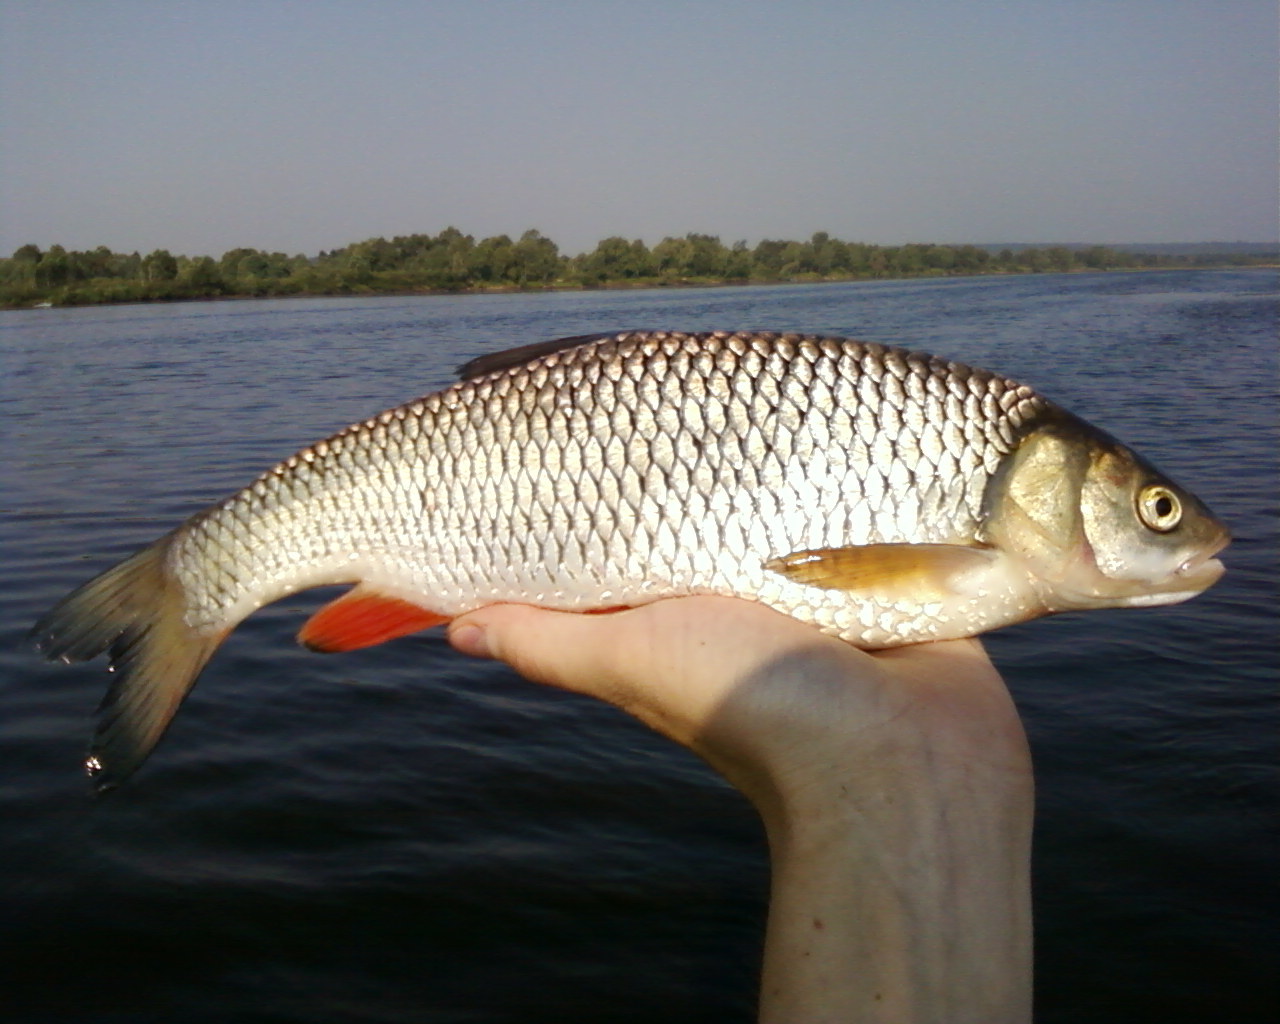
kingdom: Animalia
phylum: Chordata
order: Cypriniformes
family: Cyprinidae
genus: Squalius
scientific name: Squalius cephalus
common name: Chub
